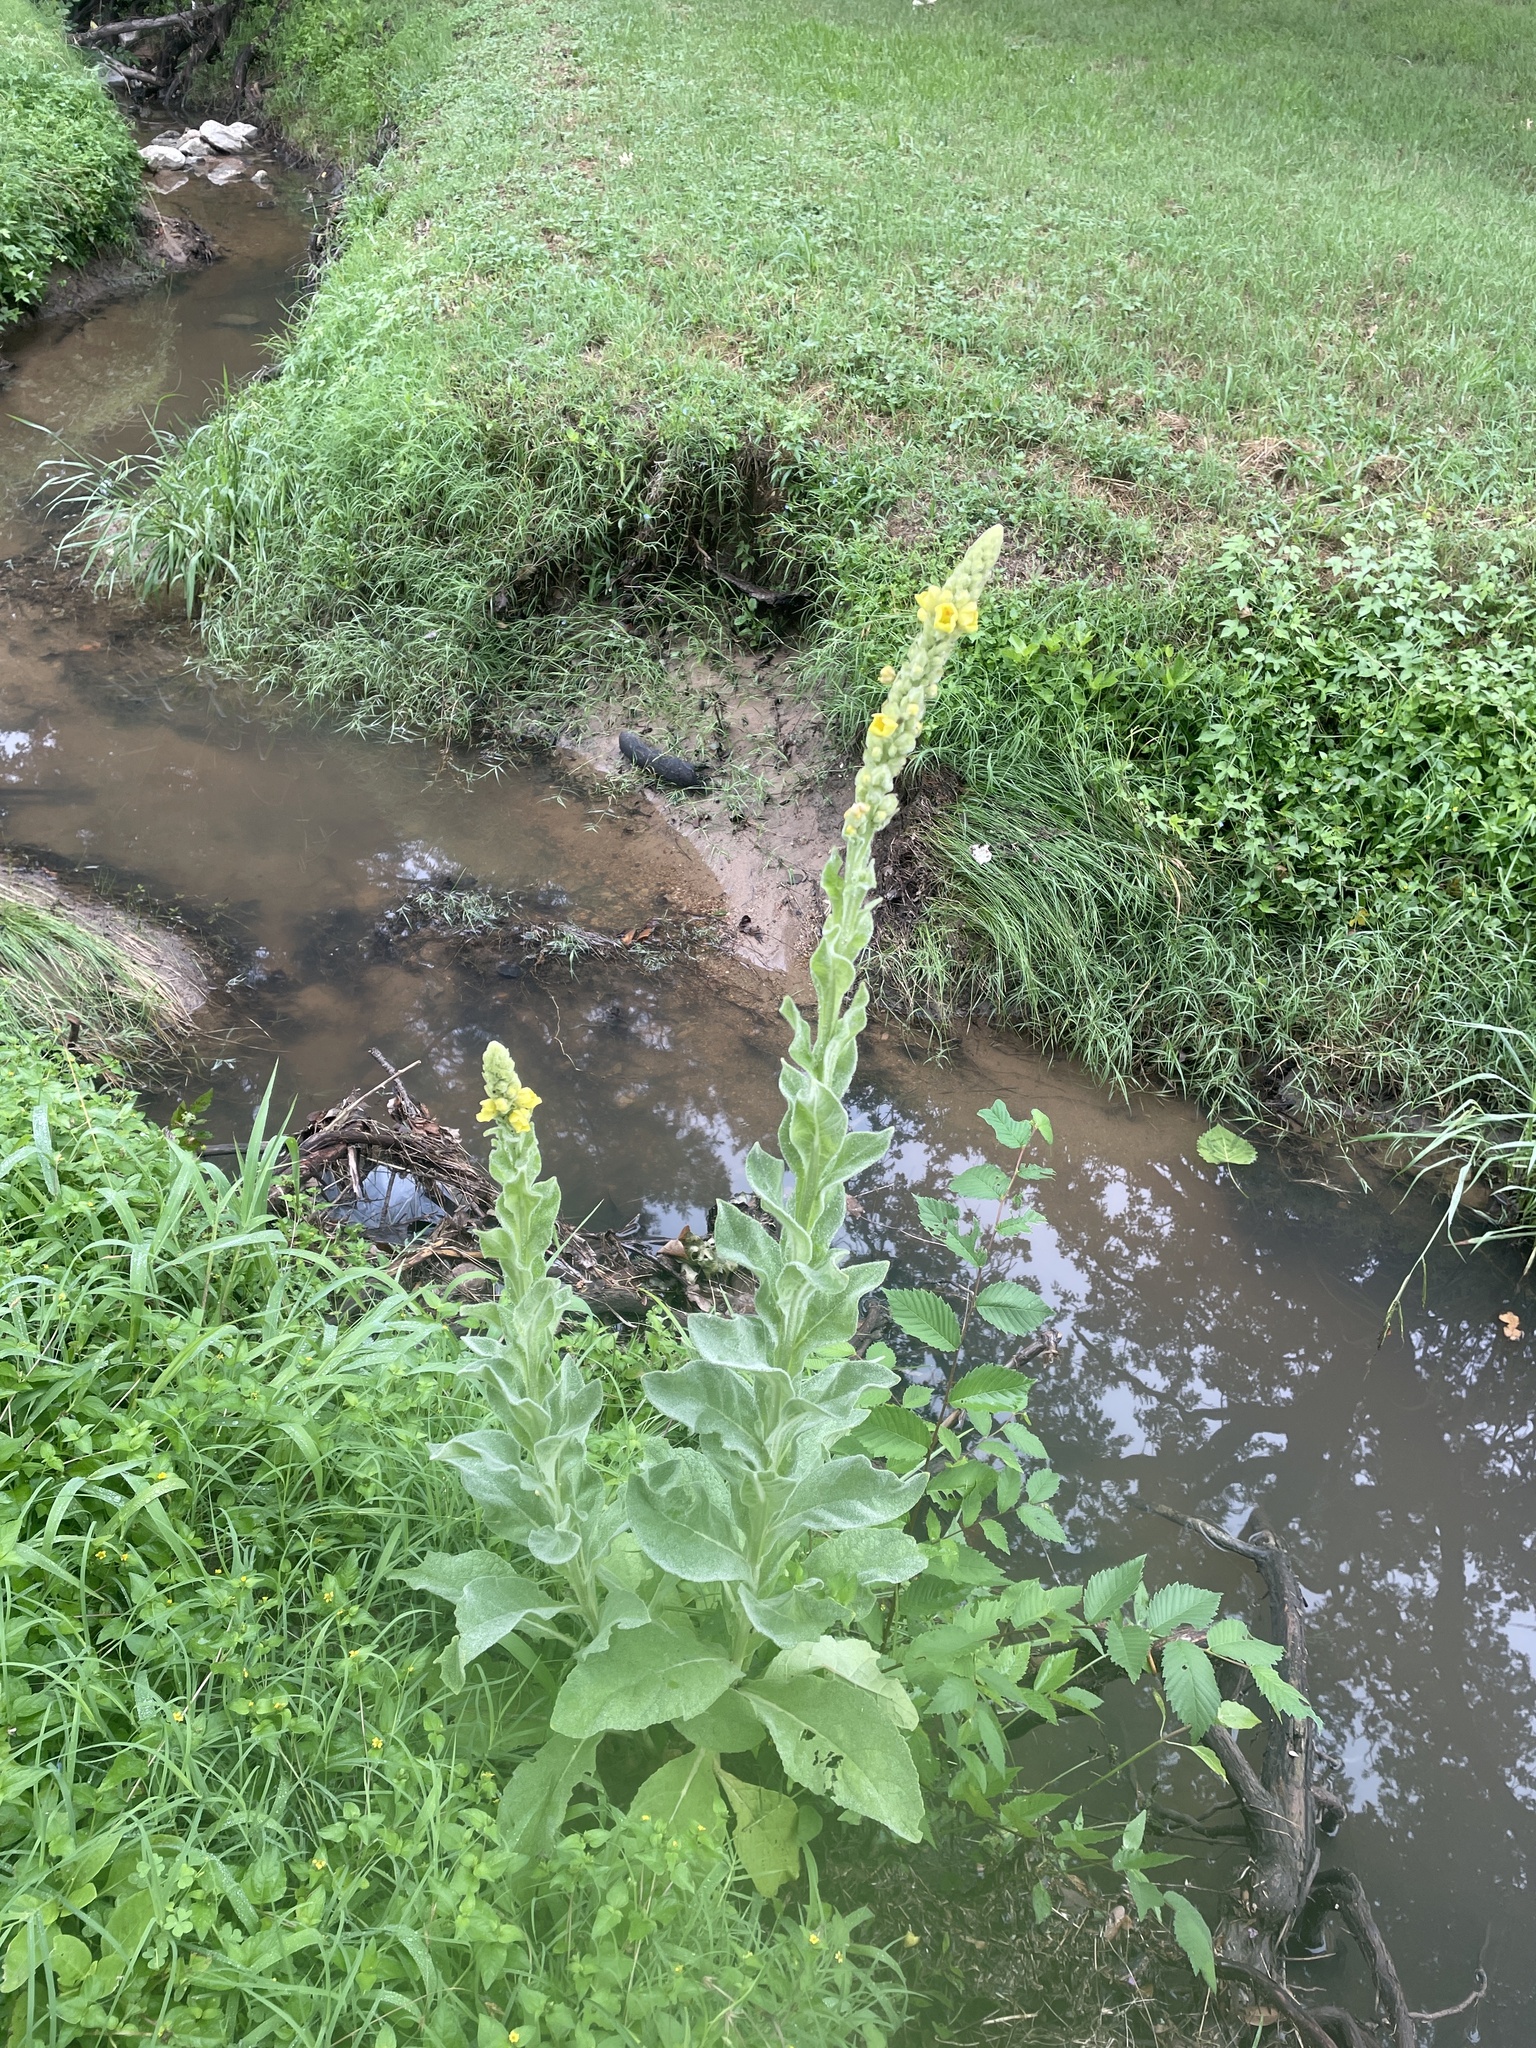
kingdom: Plantae
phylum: Tracheophyta
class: Magnoliopsida
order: Lamiales
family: Scrophulariaceae
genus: Verbascum
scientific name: Verbascum thapsus
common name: Common mullein
